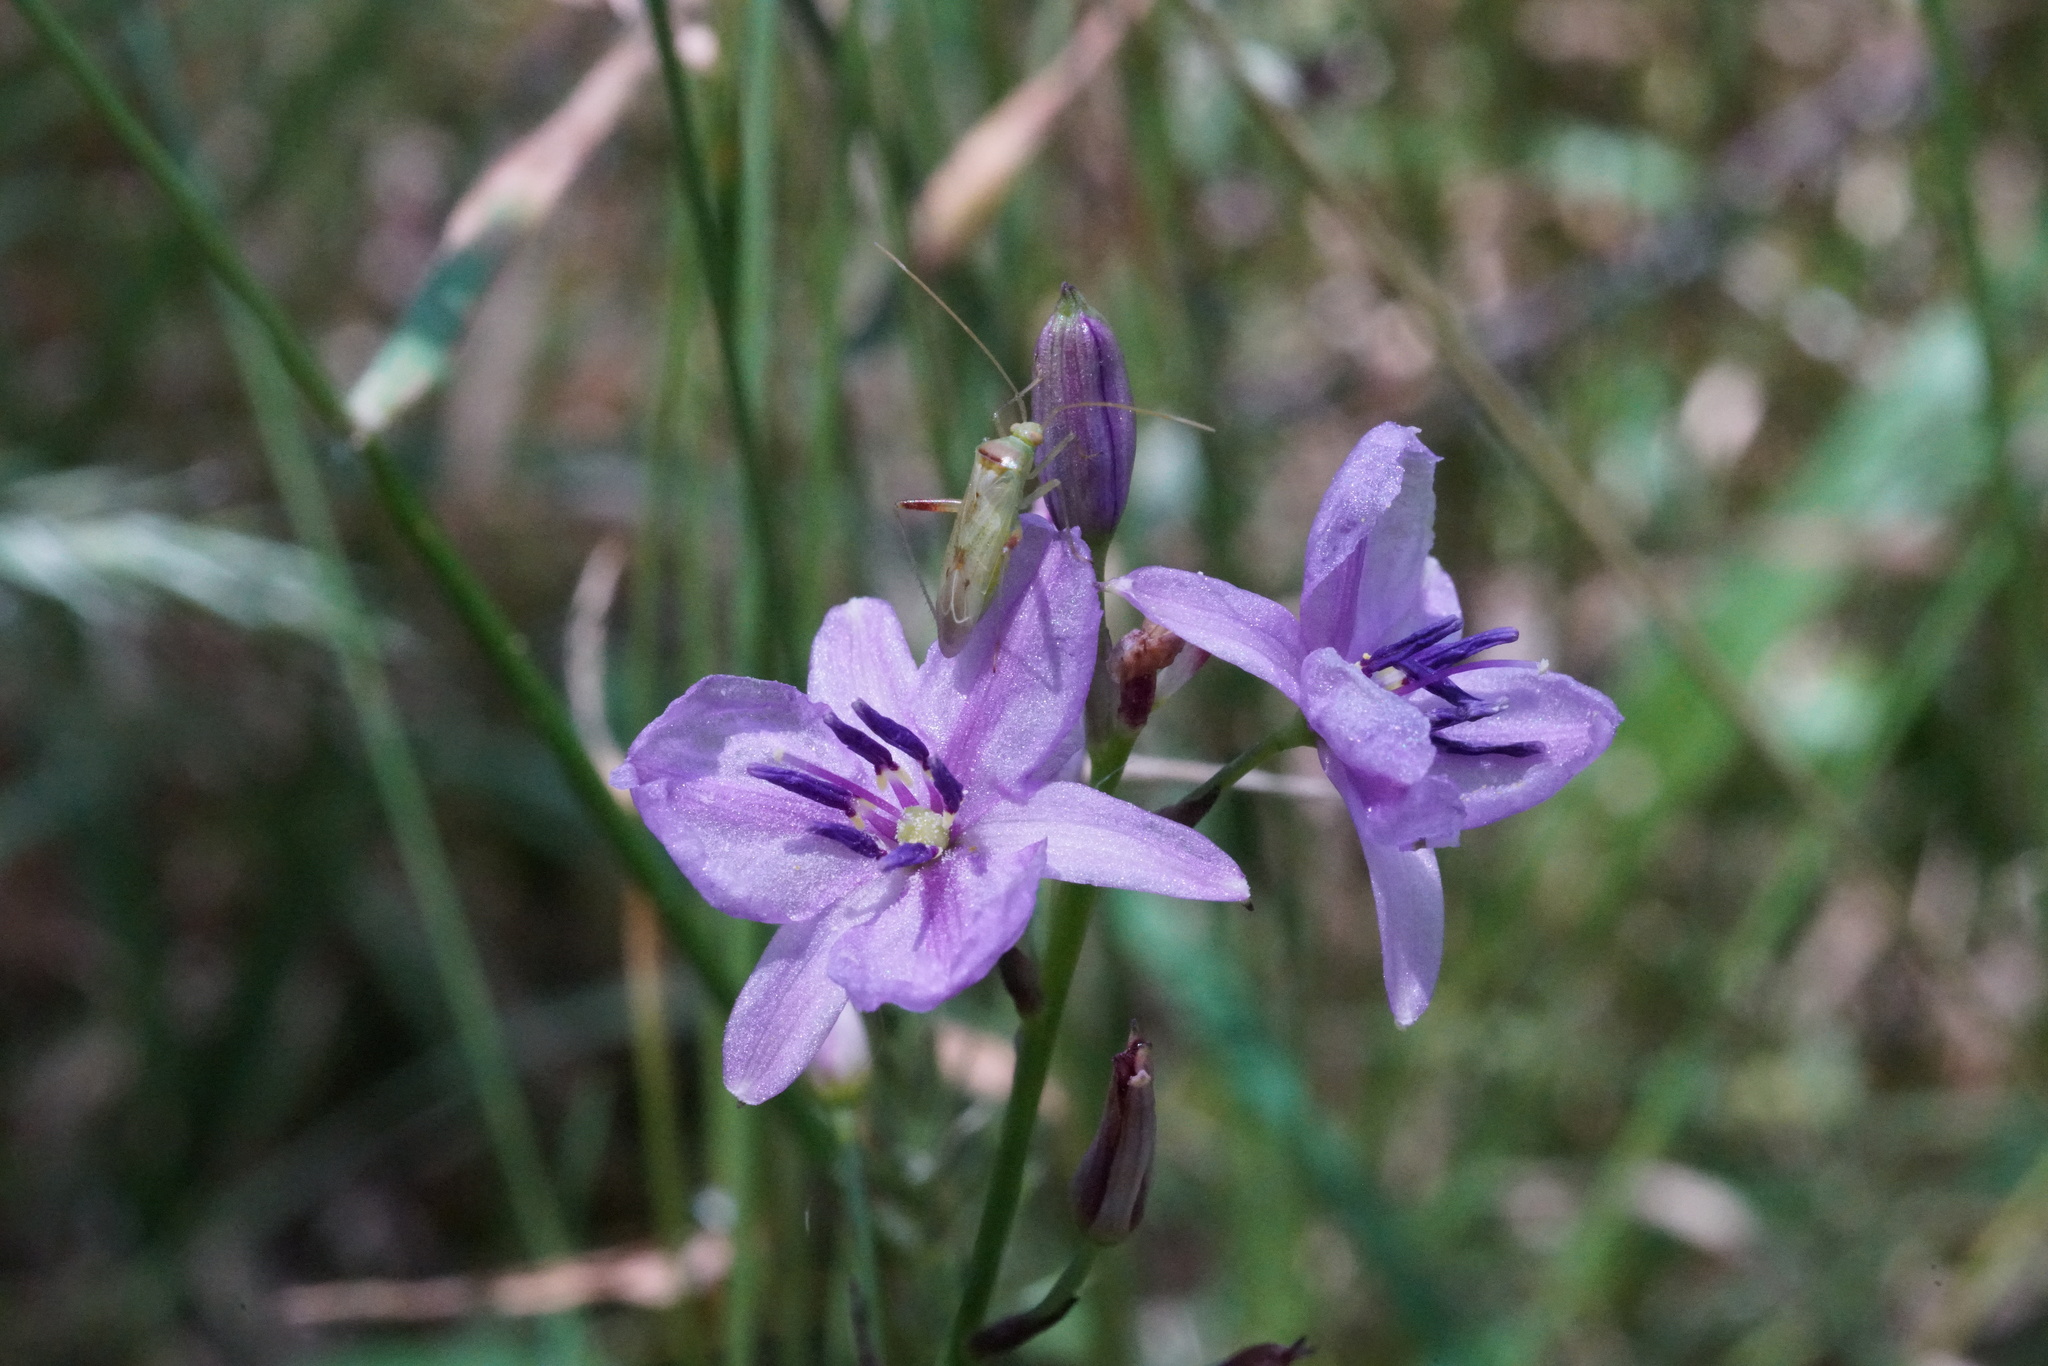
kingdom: Plantae
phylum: Tracheophyta
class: Liliopsida
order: Asparagales
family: Asparagaceae
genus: Arthropodium
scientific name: Arthropodium strictum
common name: Chocolate-lily
